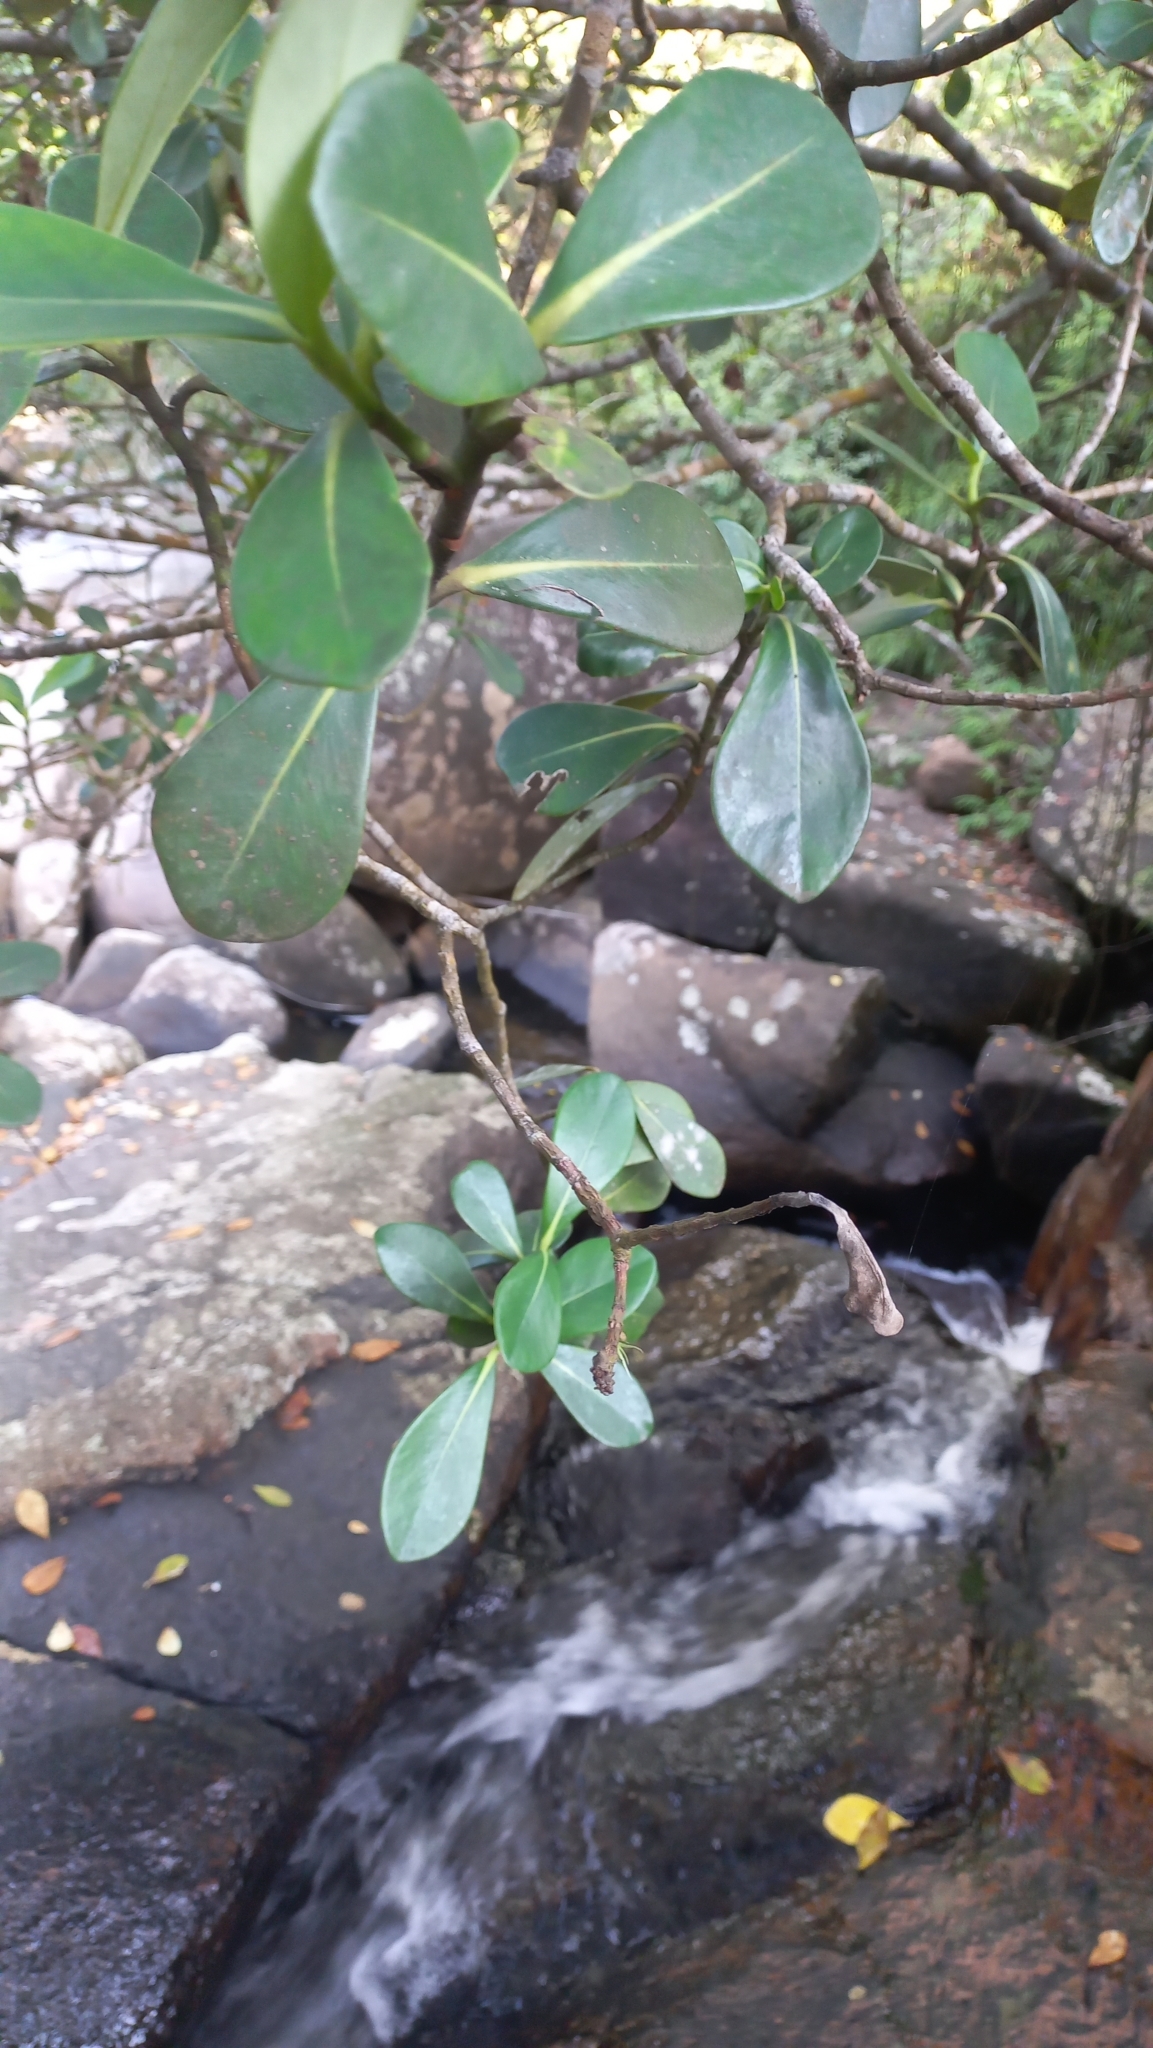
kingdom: Plantae
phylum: Tracheophyta
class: Magnoliopsida
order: Malpighiales
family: Clusiaceae
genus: Clusia
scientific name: Clusia criuva
